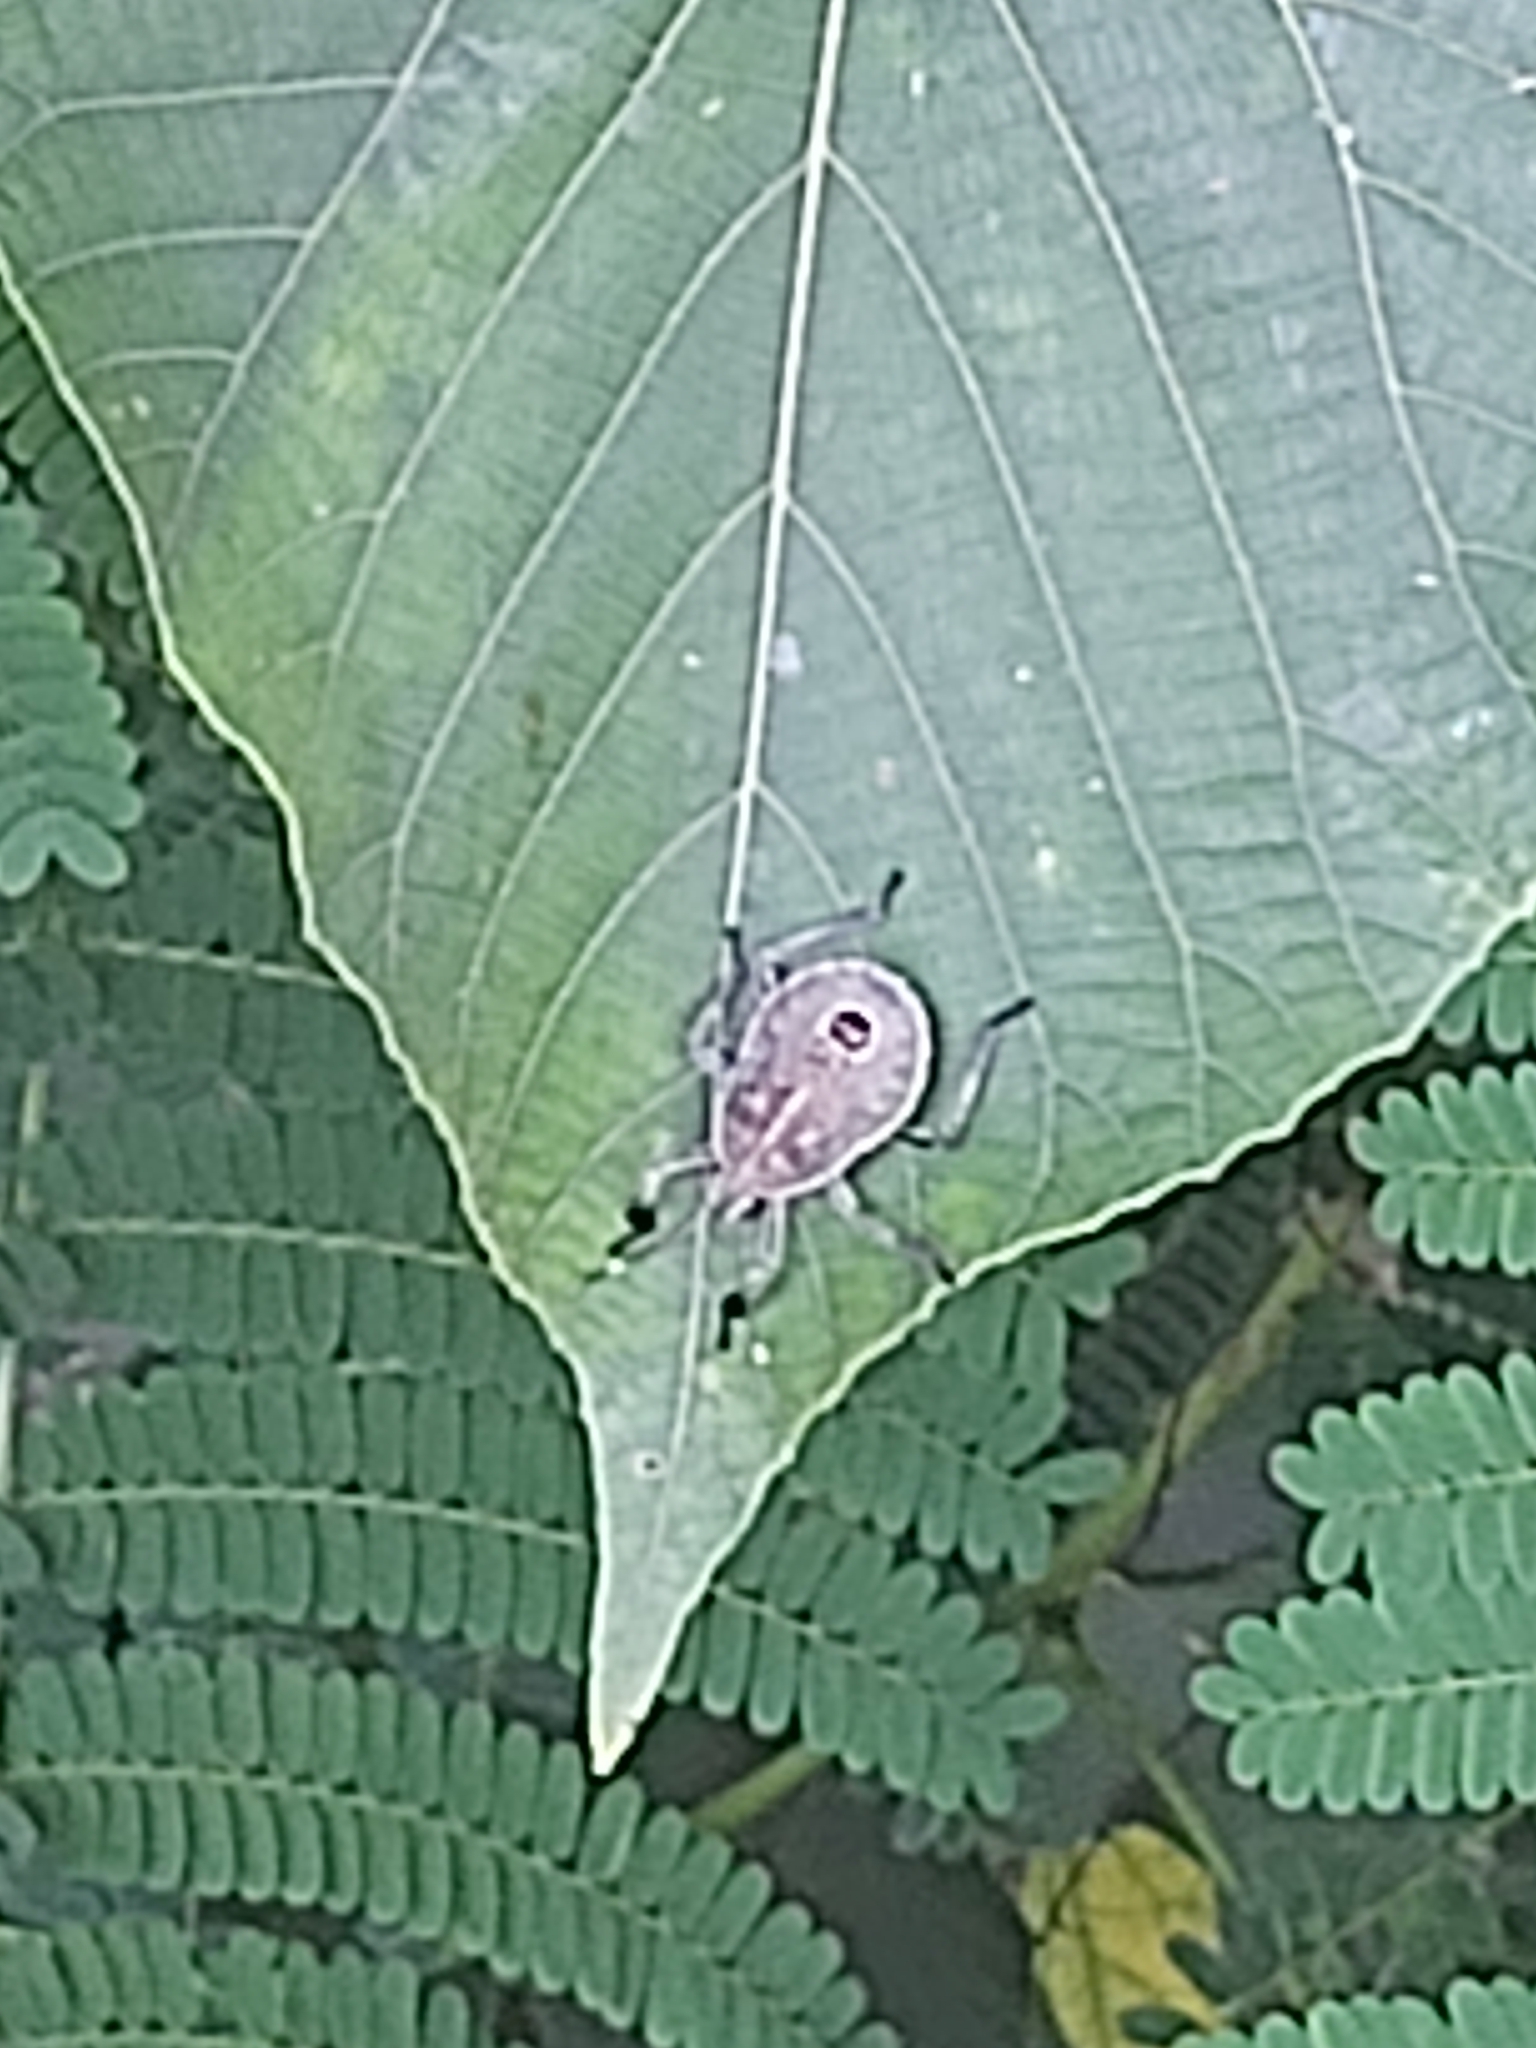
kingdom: Animalia
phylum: Arthropoda
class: Insecta
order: Hemiptera
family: Pentatomidae
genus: Erthesina
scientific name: Erthesina fullo
